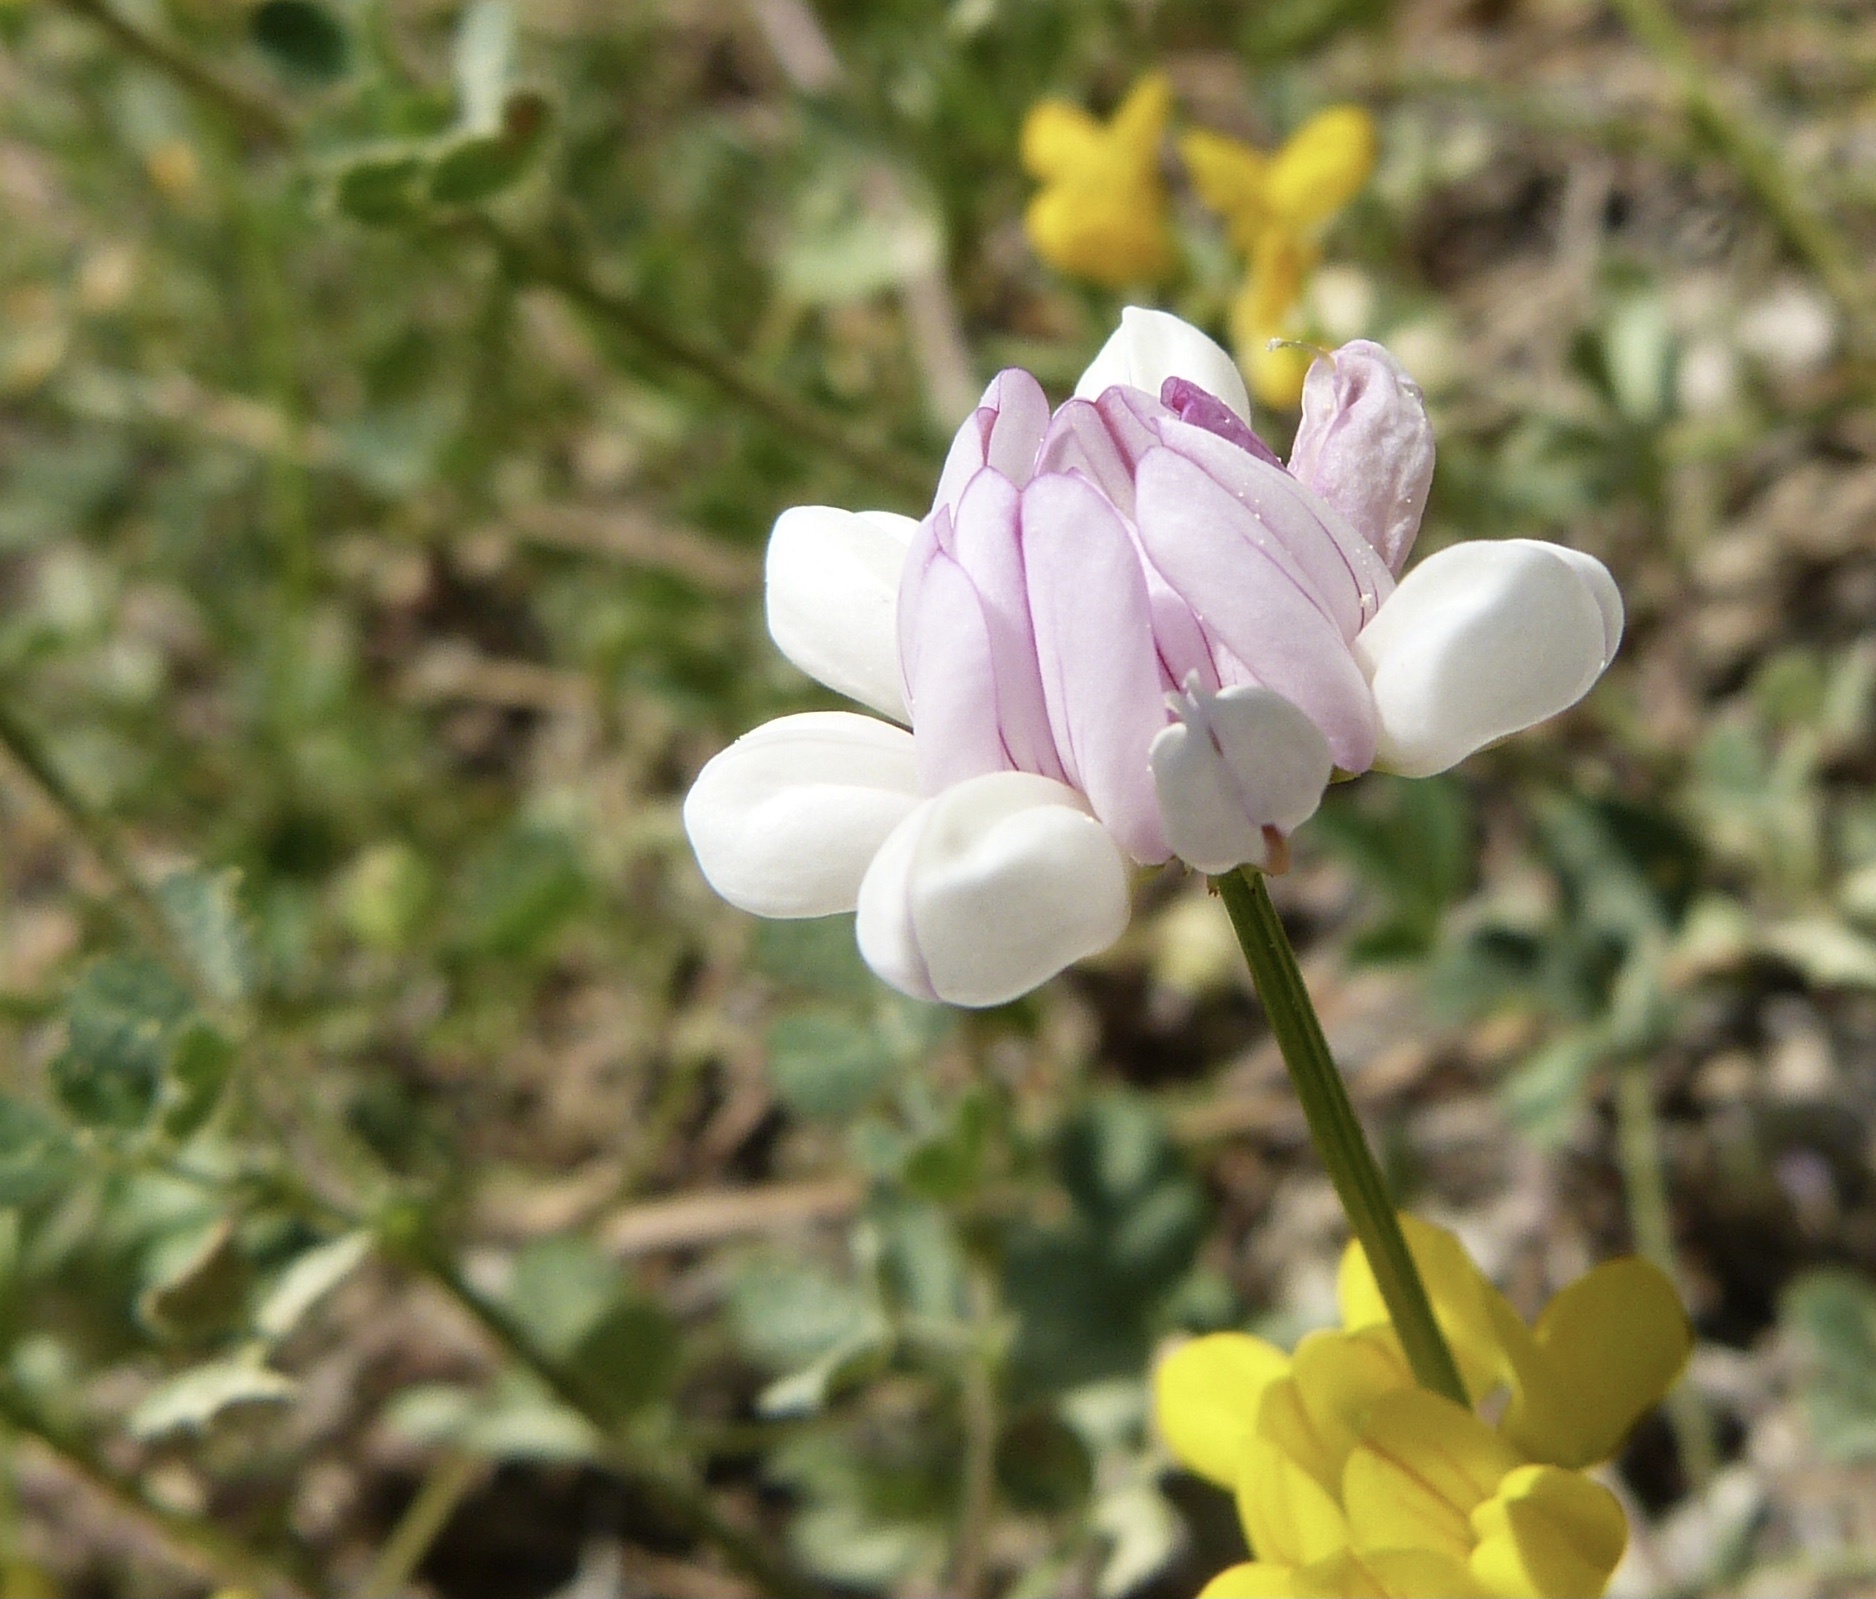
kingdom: Plantae
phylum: Tracheophyta
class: Magnoliopsida
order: Fabales
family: Fabaceae
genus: Coronilla
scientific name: Coronilla varia
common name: Crownvetch
